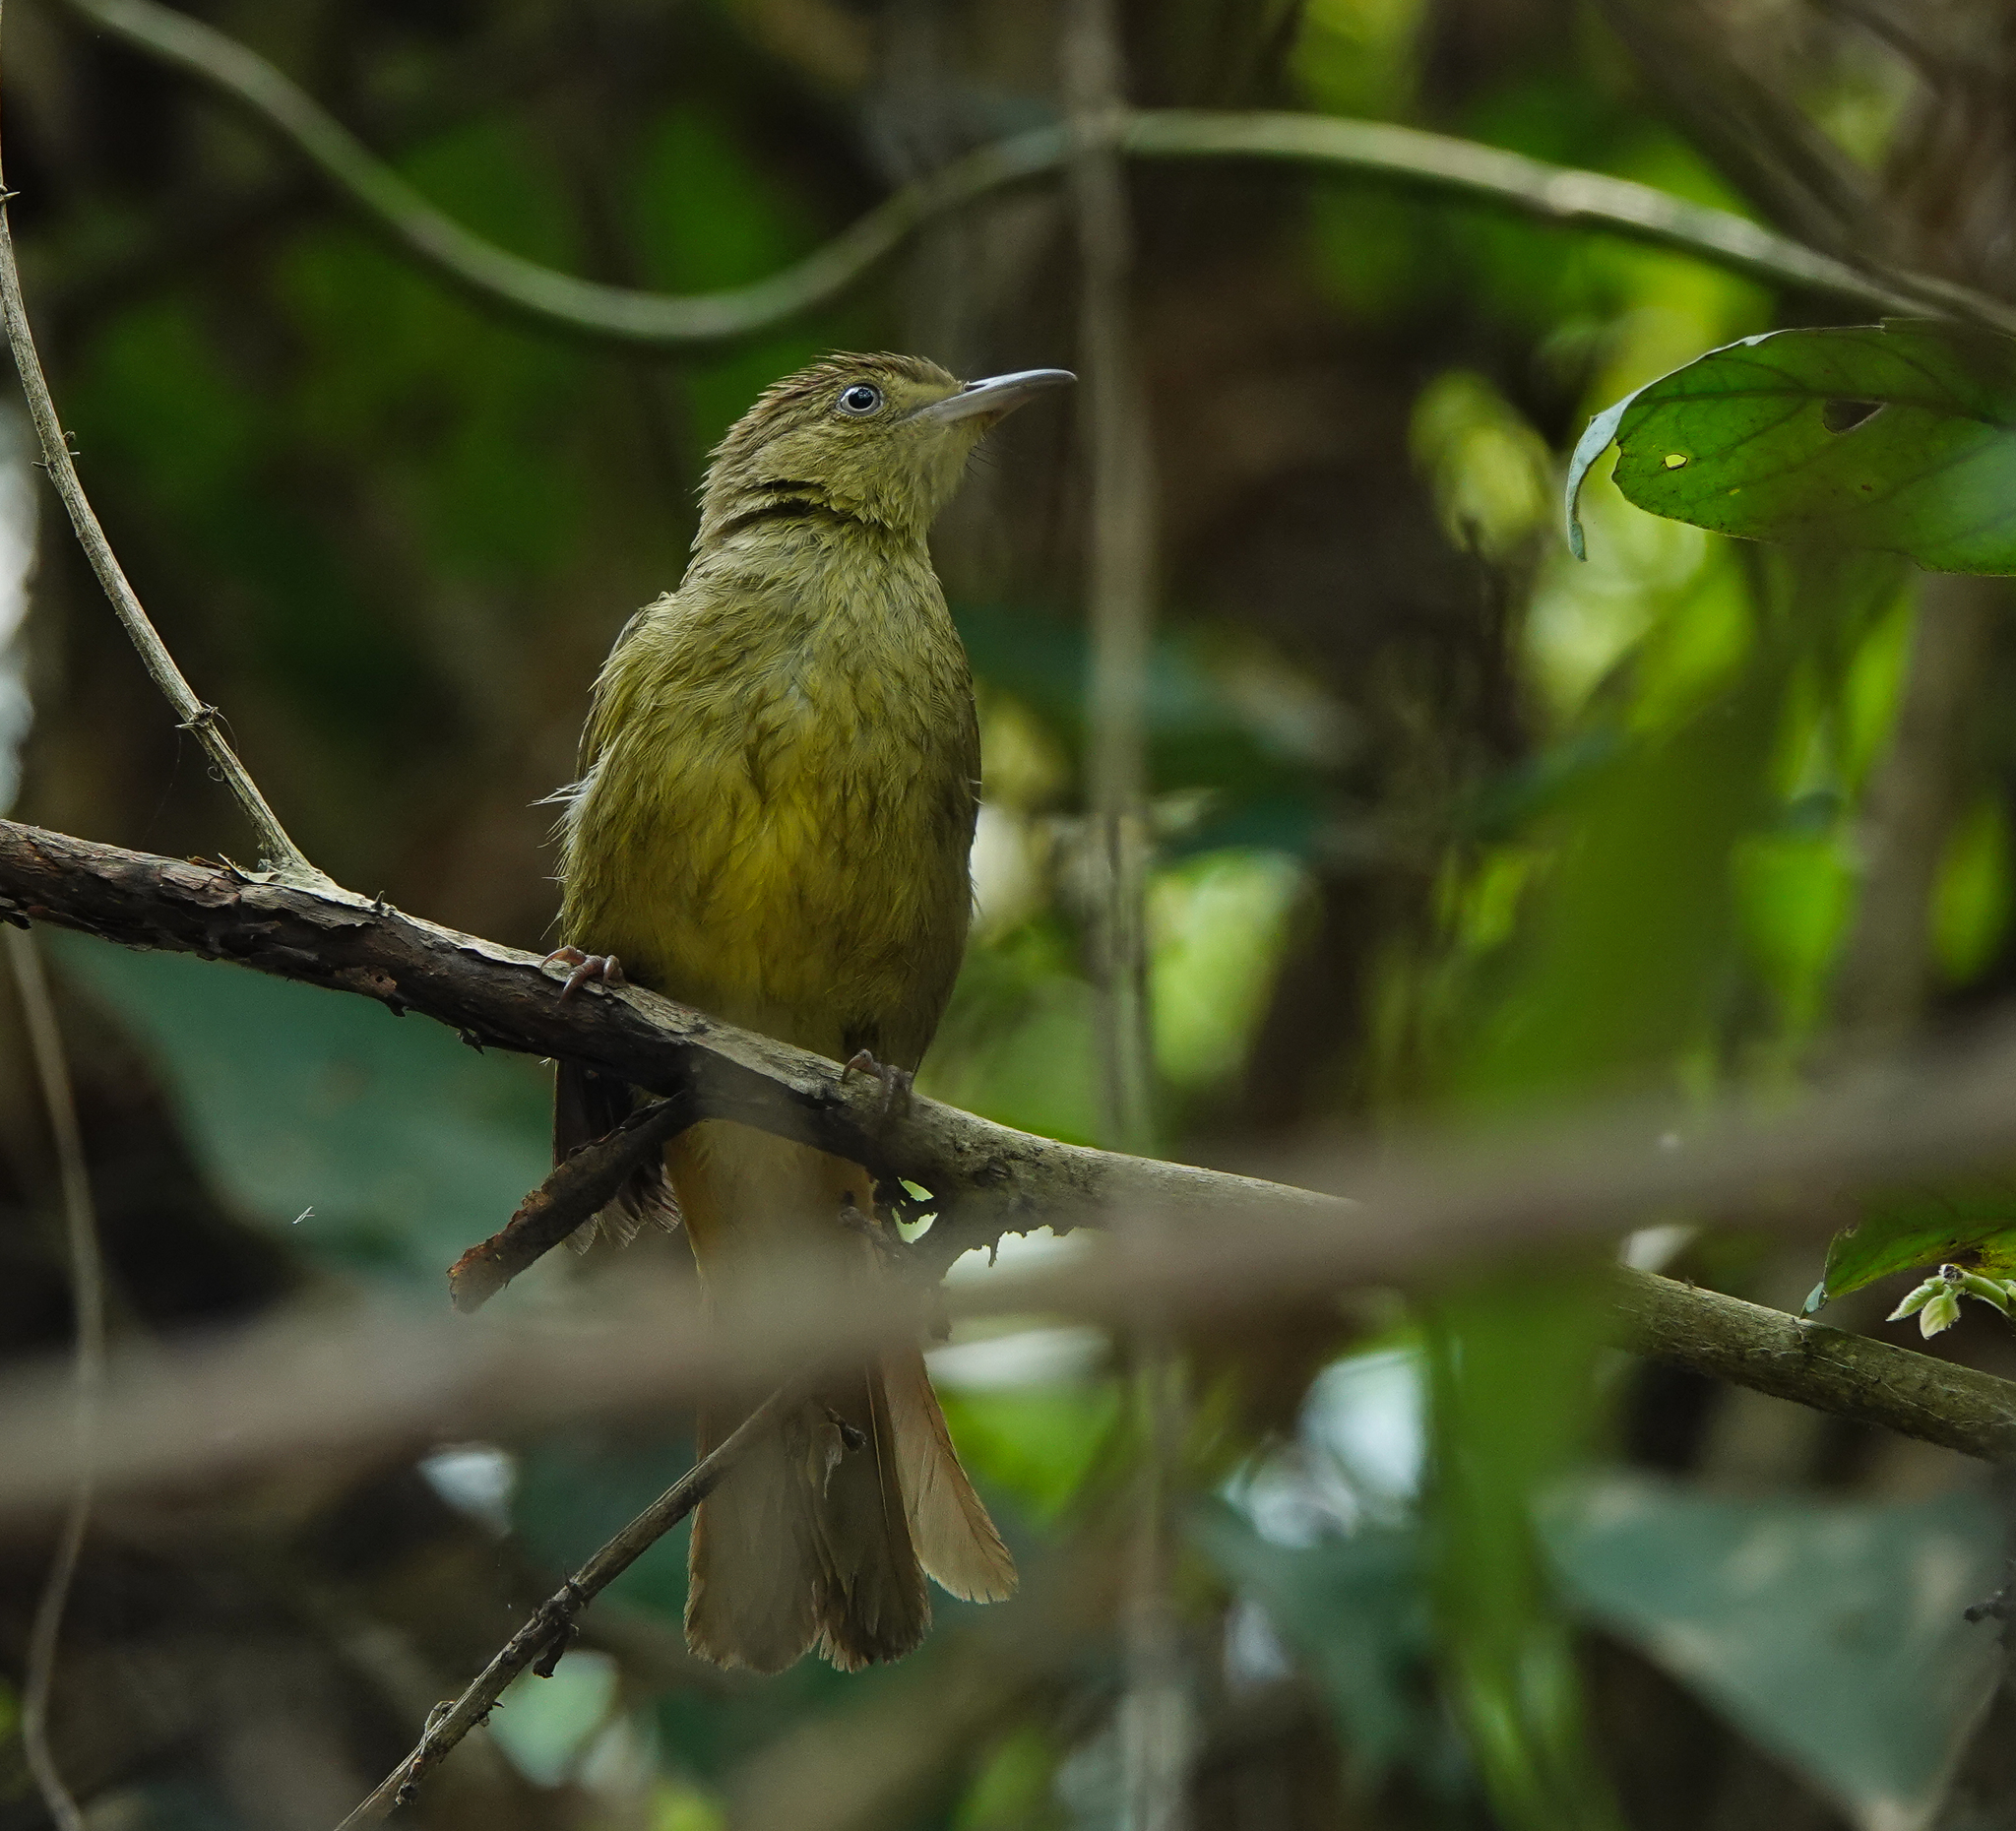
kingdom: Animalia
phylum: Chordata
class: Aves
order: Passeriformes
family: Pycnonotidae
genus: Iole
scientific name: Iole virescens
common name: Olive bulbul
